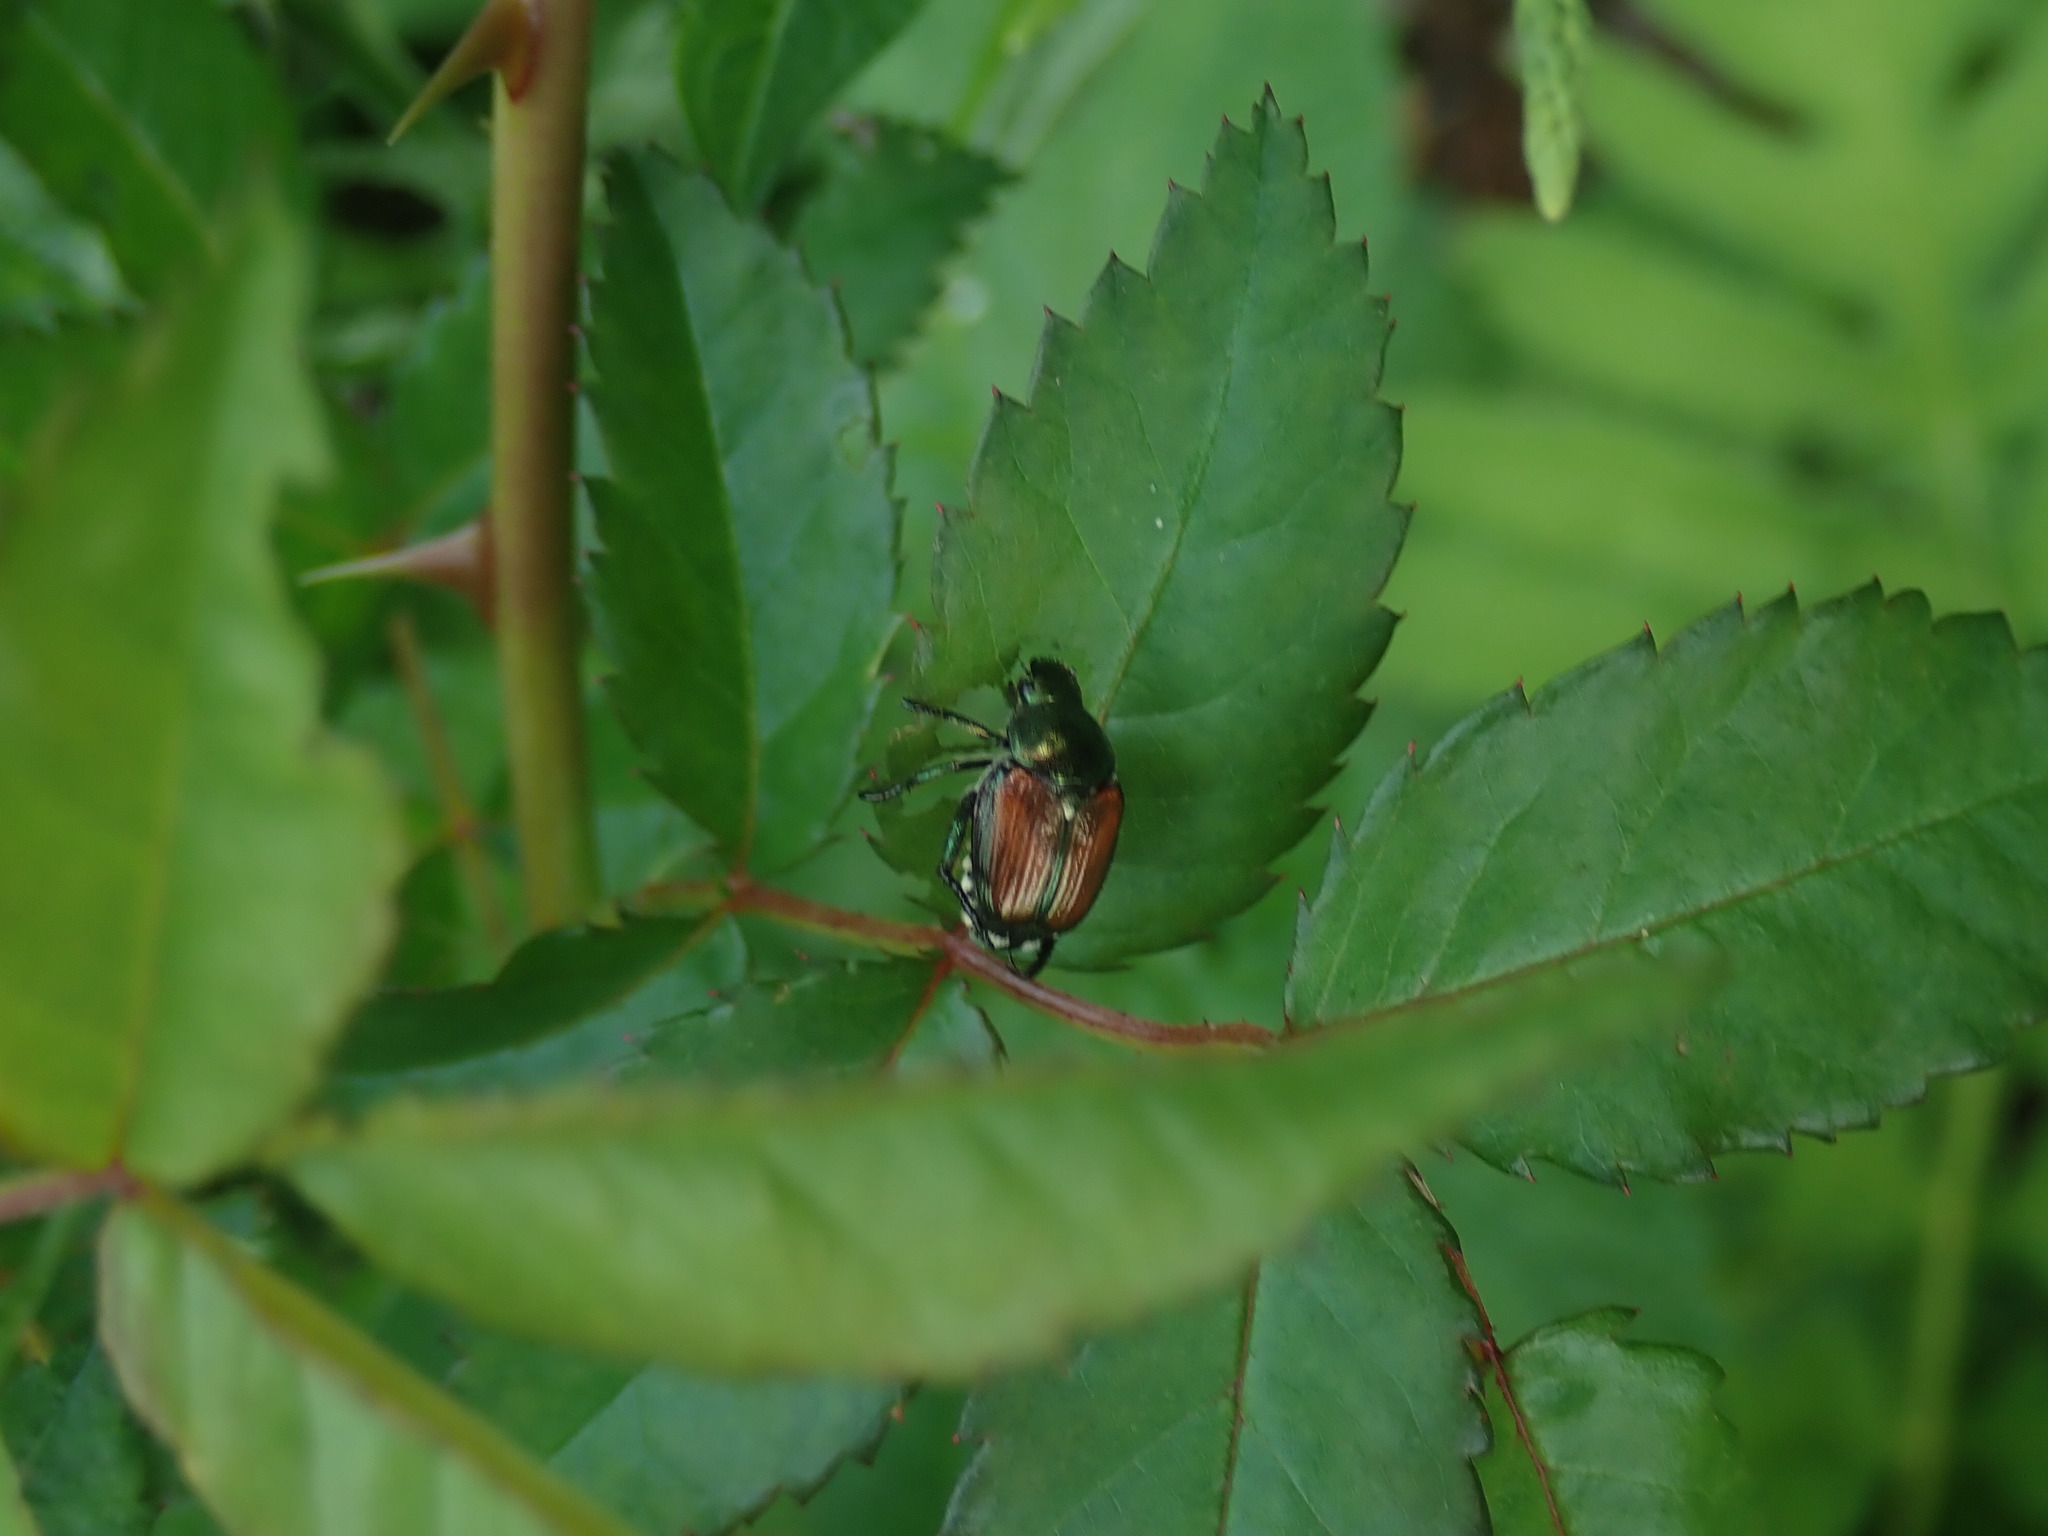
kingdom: Animalia
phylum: Arthropoda
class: Insecta
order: Coleoptera
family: Scarabaeidae
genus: Popillia
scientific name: Popillia japonica
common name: Japanese beetle
